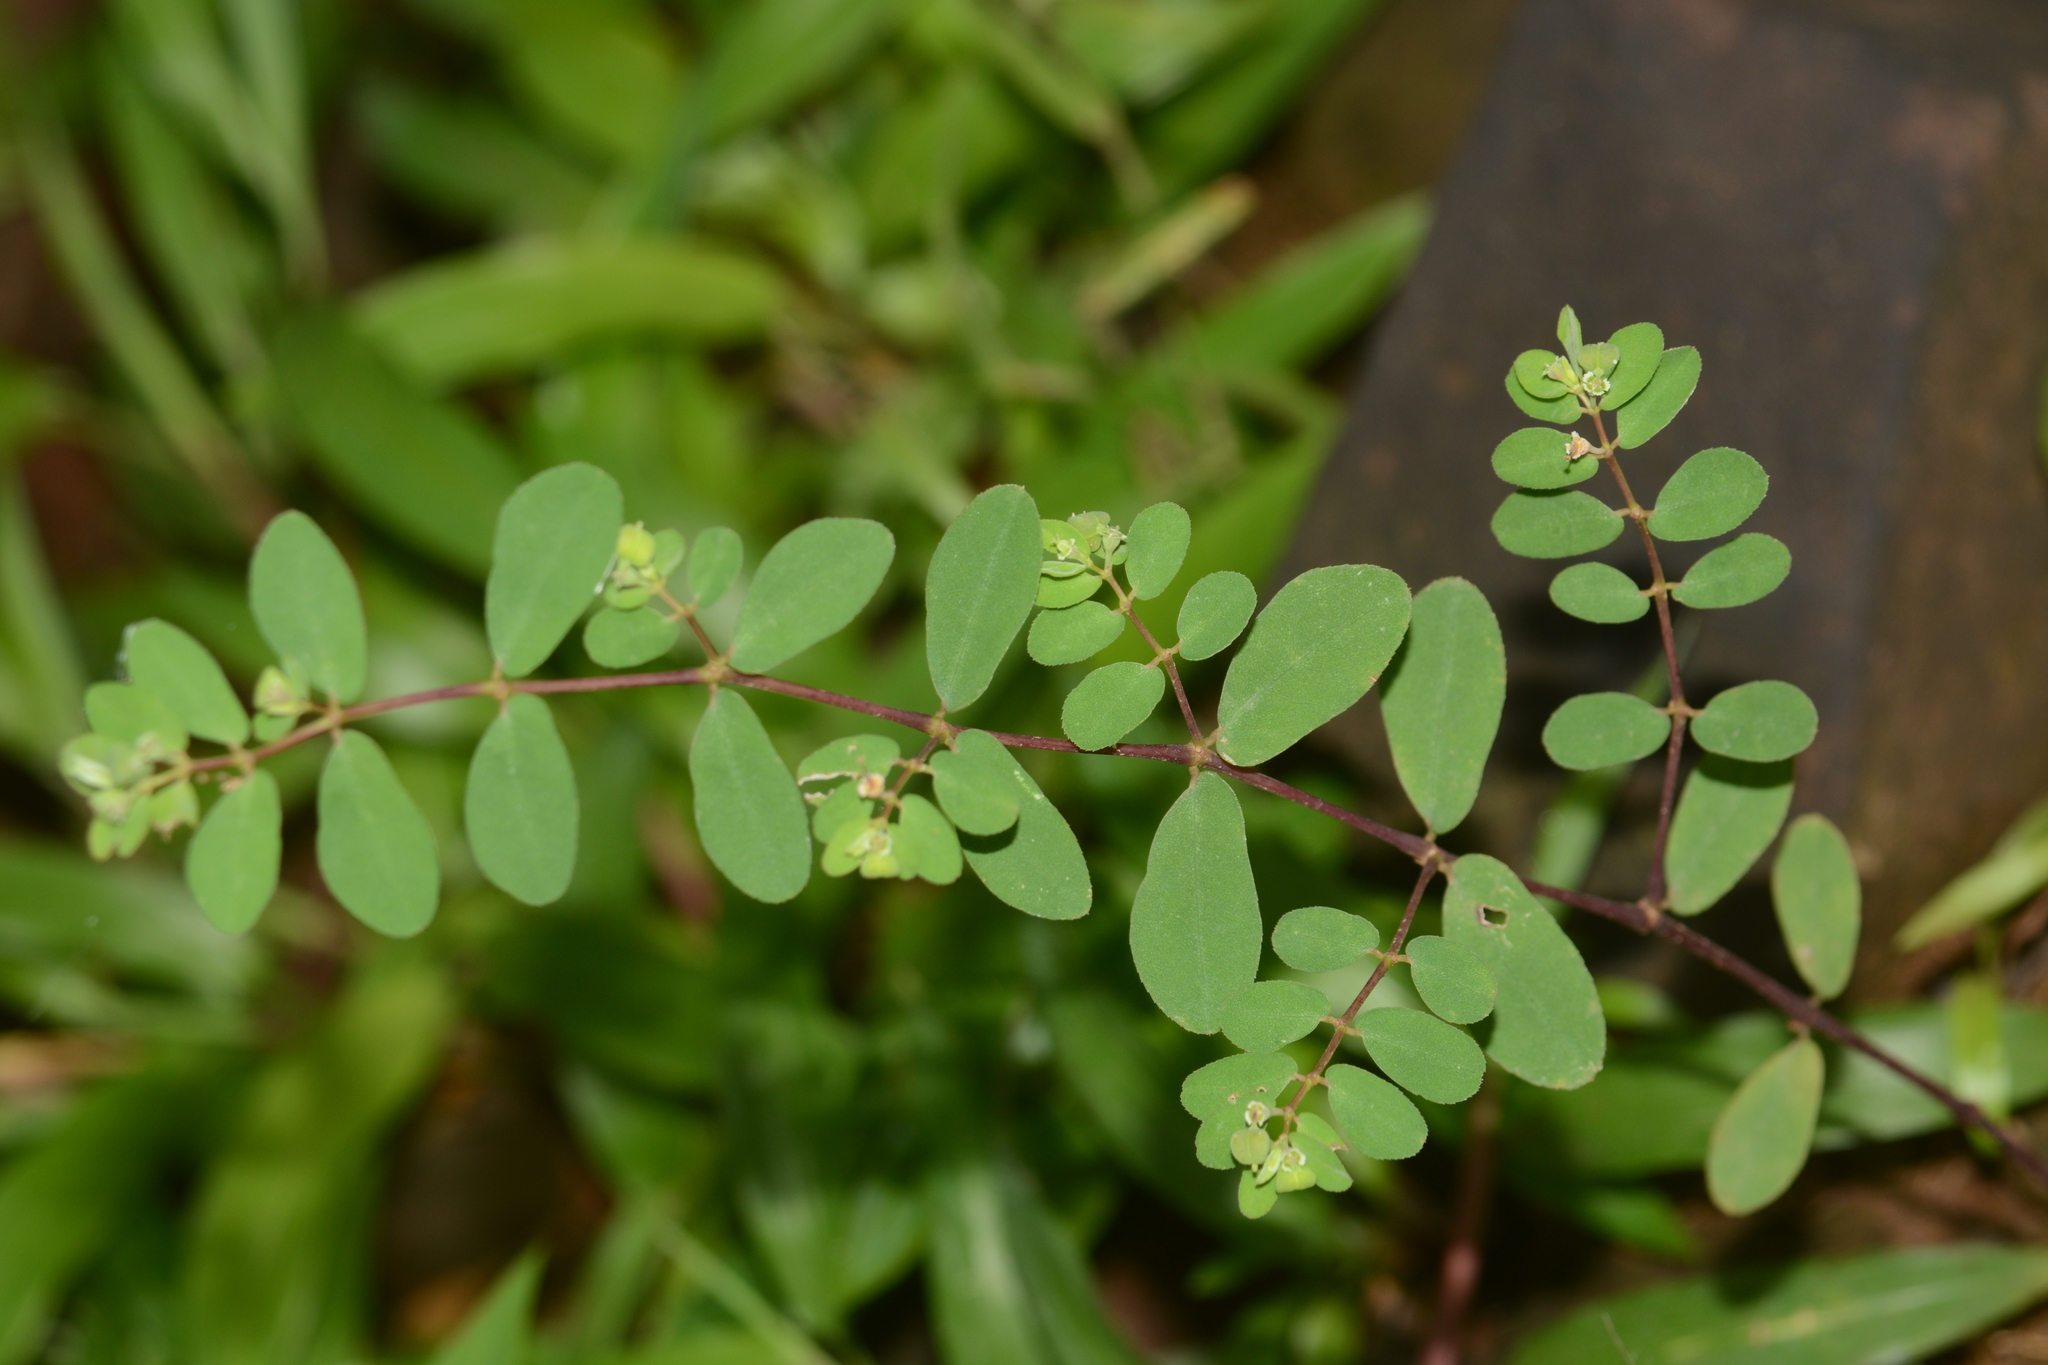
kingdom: Plantae
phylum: Tracheophyta
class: Magnoliopsida
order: Malpighiales
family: Euphorbiaceae
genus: Euphorbia
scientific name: Euphorbia erythroclada
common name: Dhudheri
